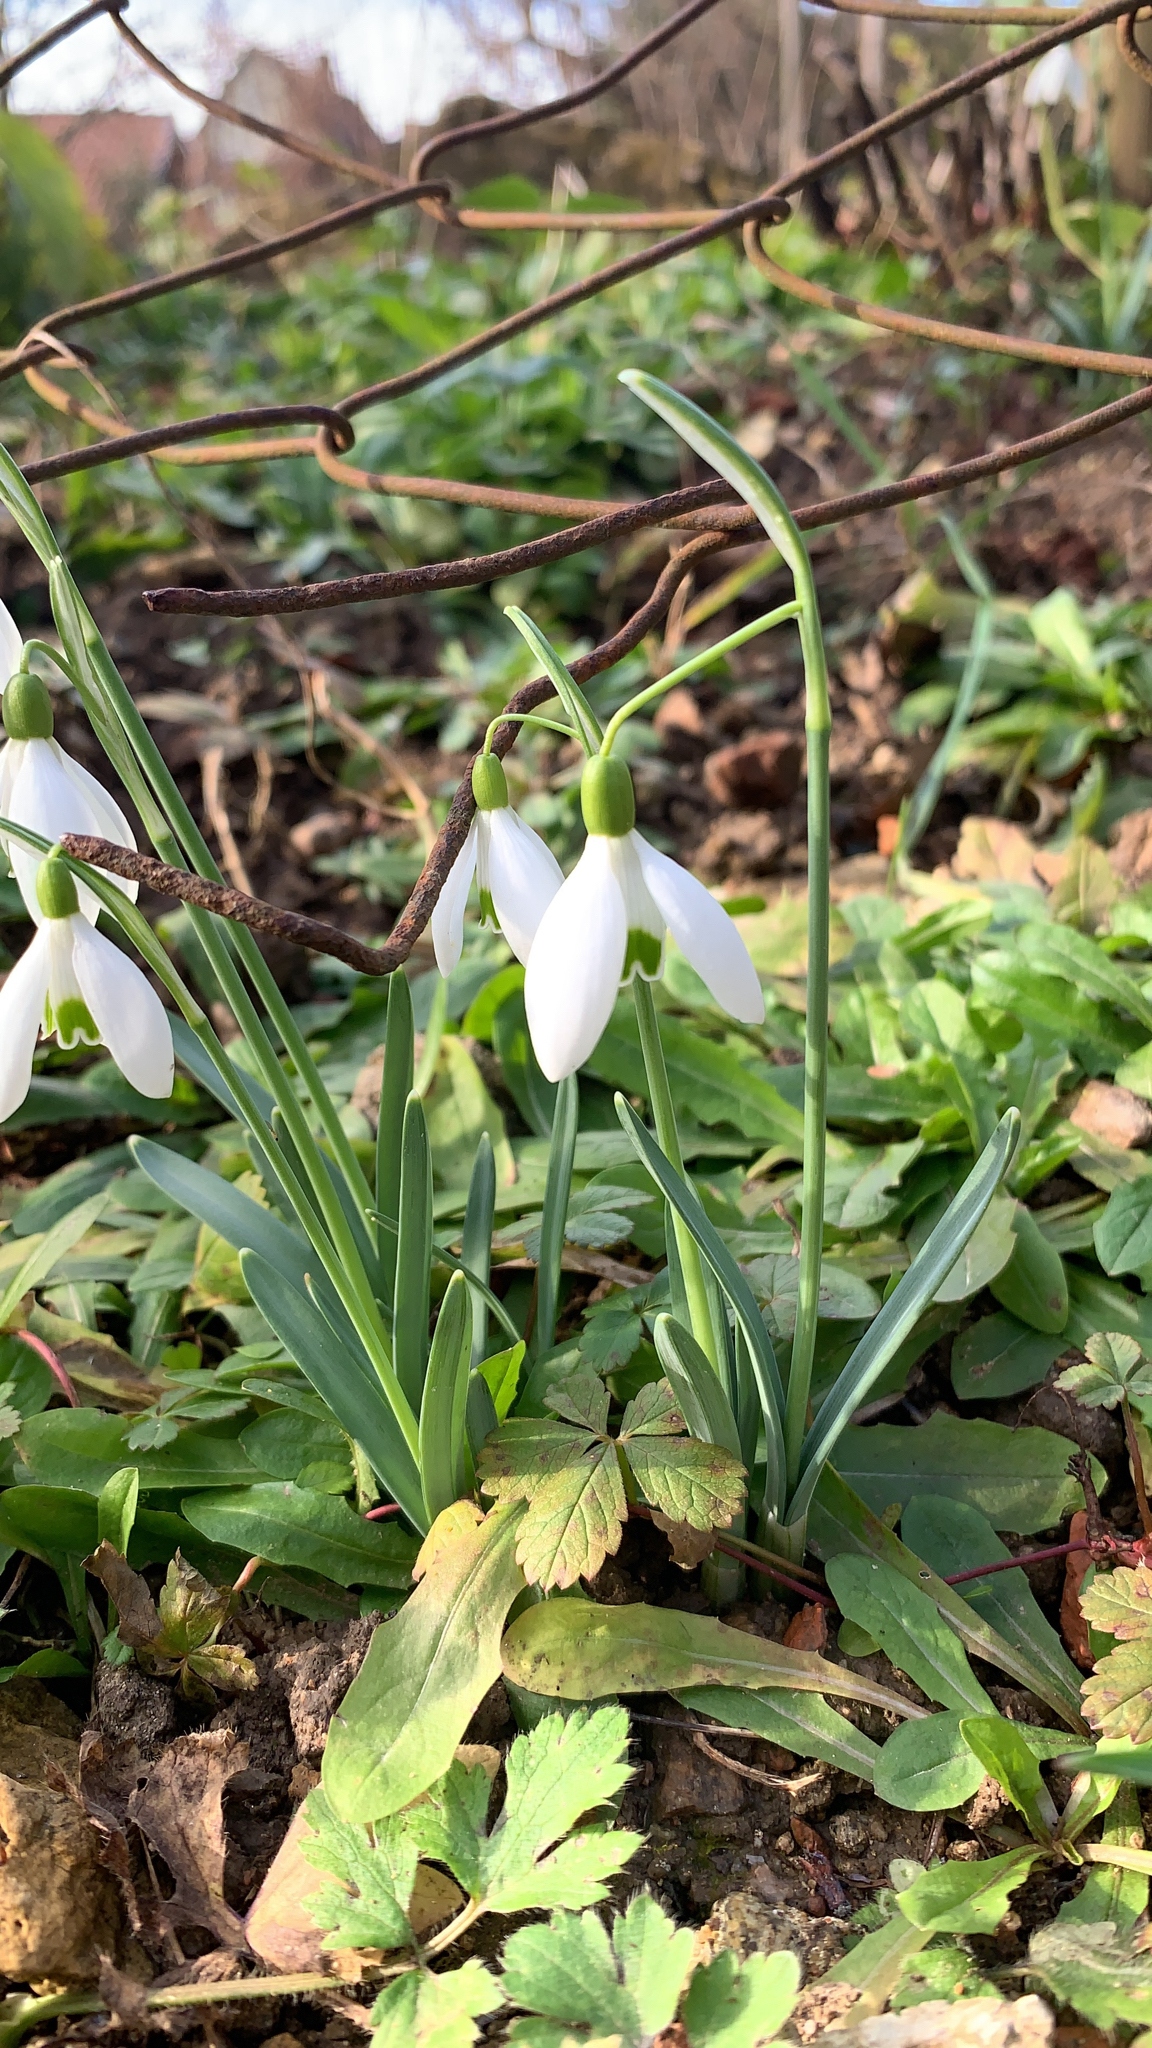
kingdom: Plantae
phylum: Tracheophyta
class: Liliopsida
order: Asparagales
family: Amaryllidaceae
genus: Galanthus
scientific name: Galanthus nivalis
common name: Snowdrop
